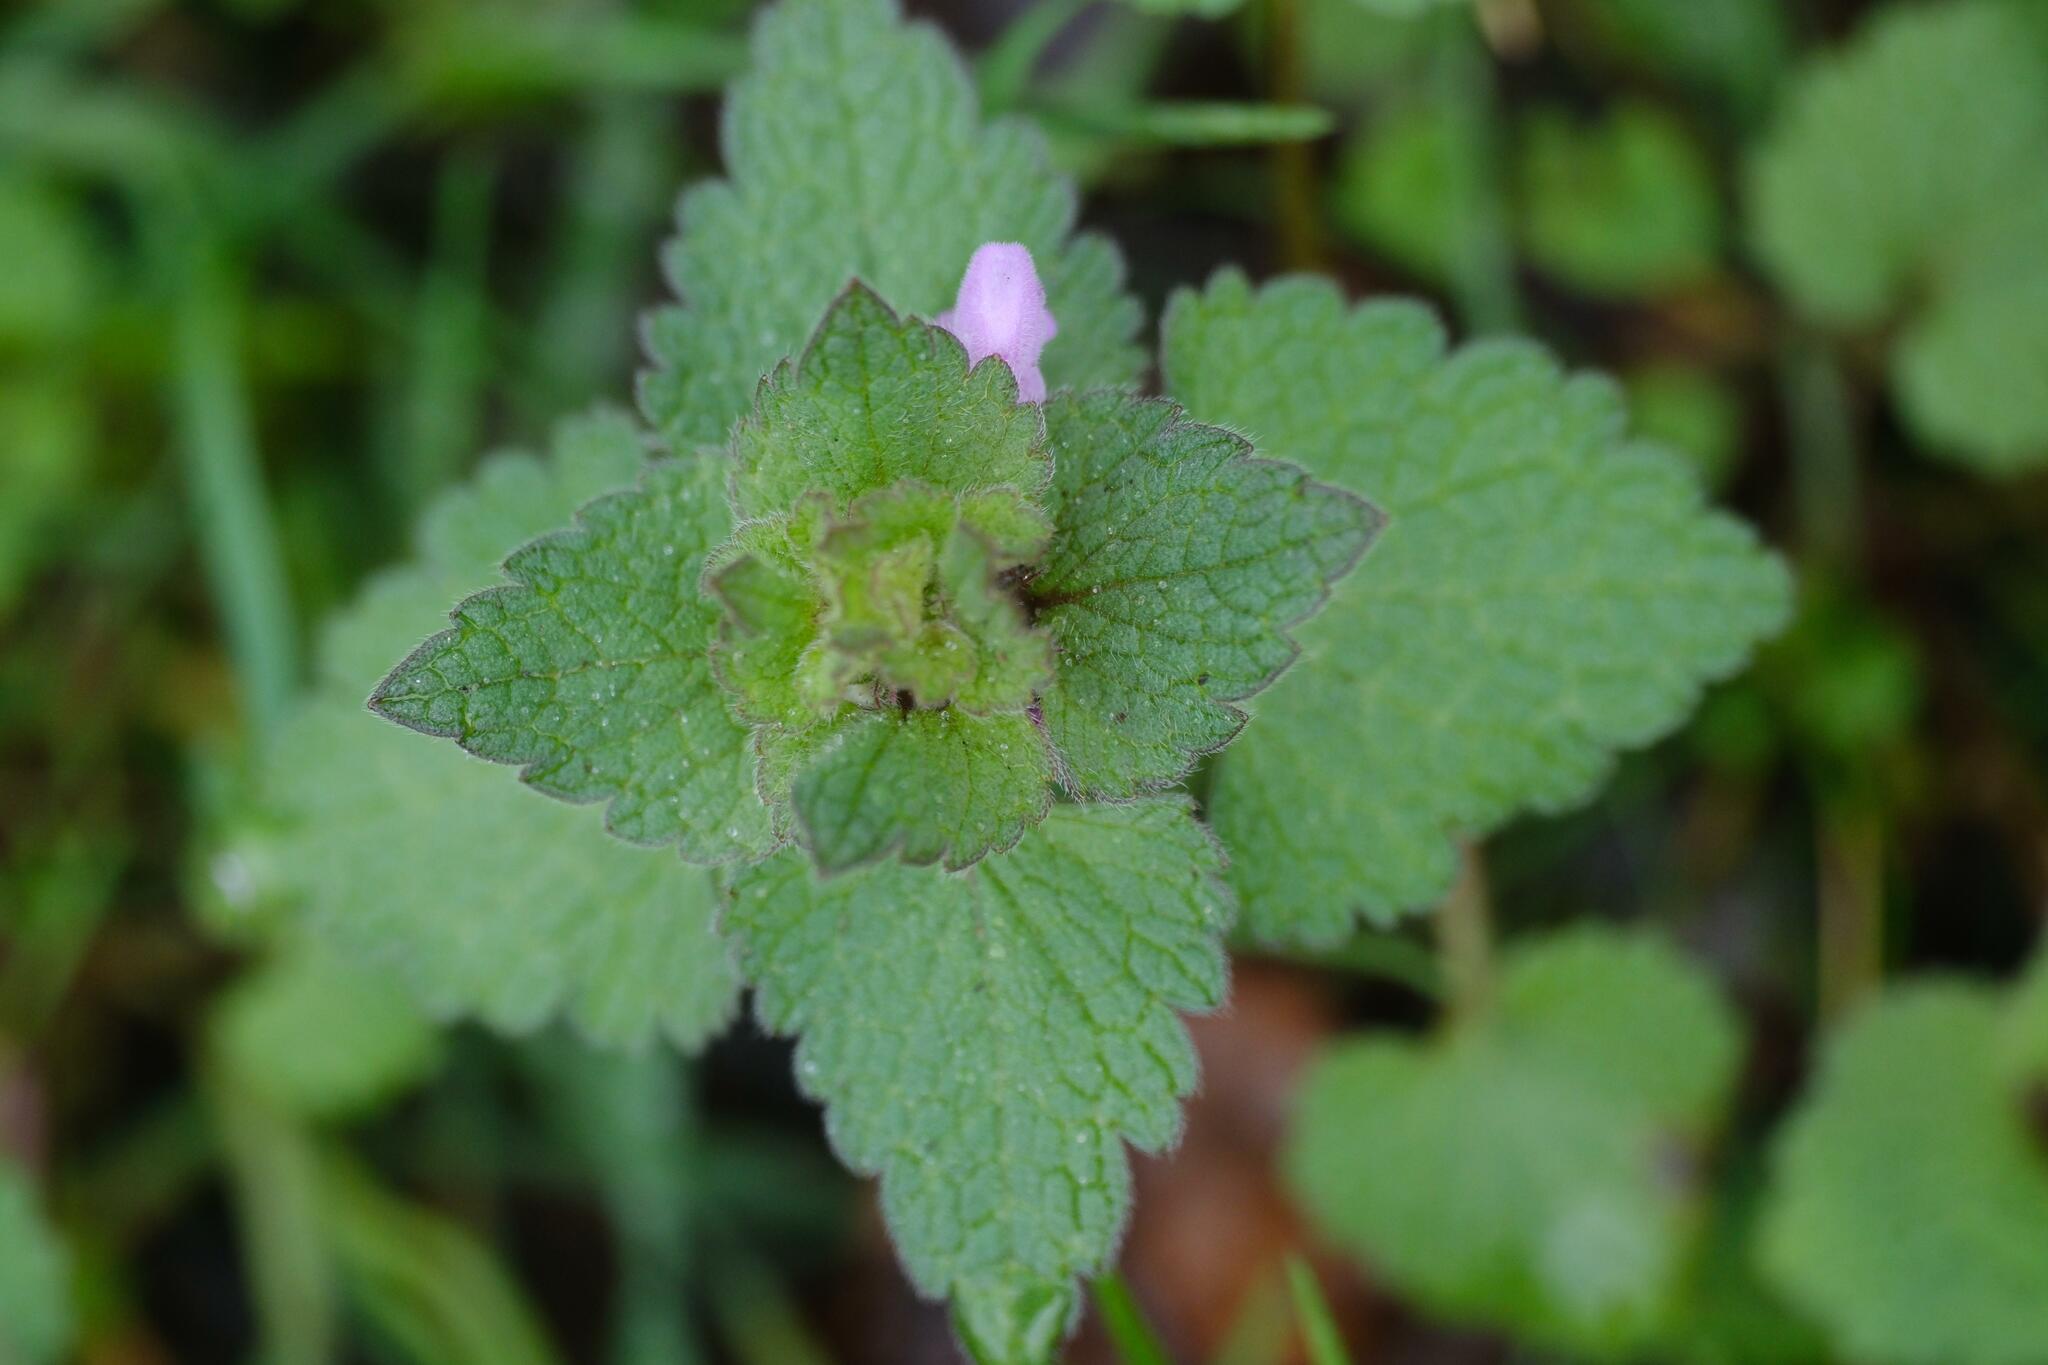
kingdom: Plantae
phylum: Tracheophyta
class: Magnoliopsida
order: Lamiales
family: Lamiaceae
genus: Lamium
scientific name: Lamium purpureum
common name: Red dead-nettle
